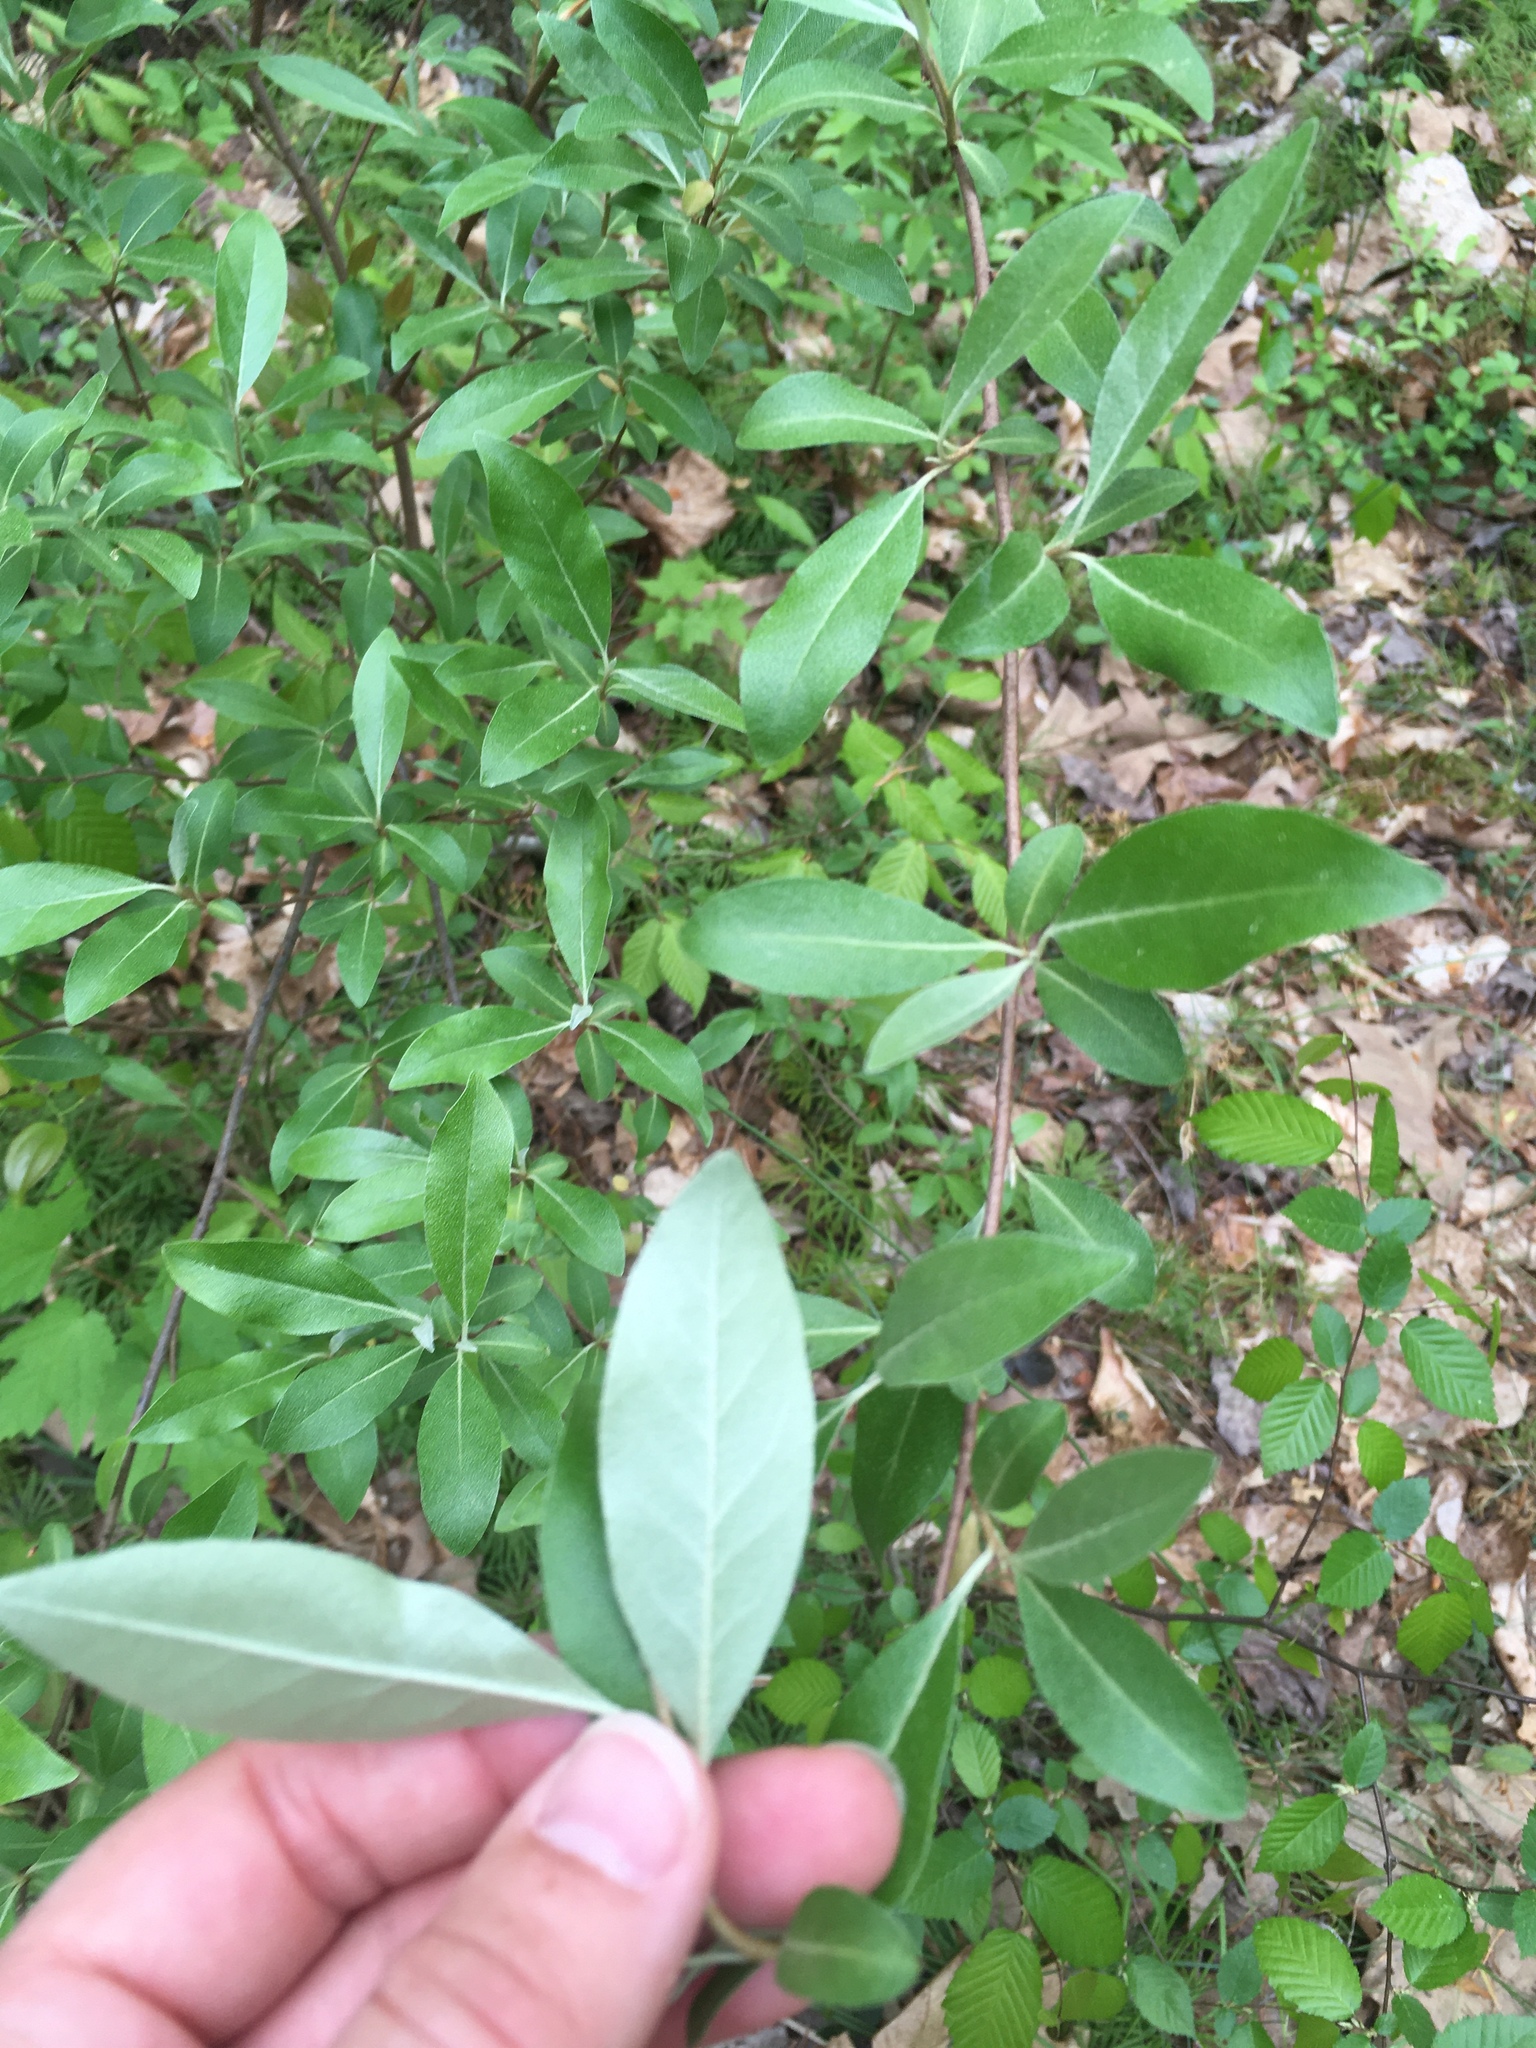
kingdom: Plantae
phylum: Tracheophyta
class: Magnoliopsida
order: Rosales
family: Elaeagnaceae
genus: Elaeagnus
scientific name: Elaeagnus umbellata
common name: Autumn olive
